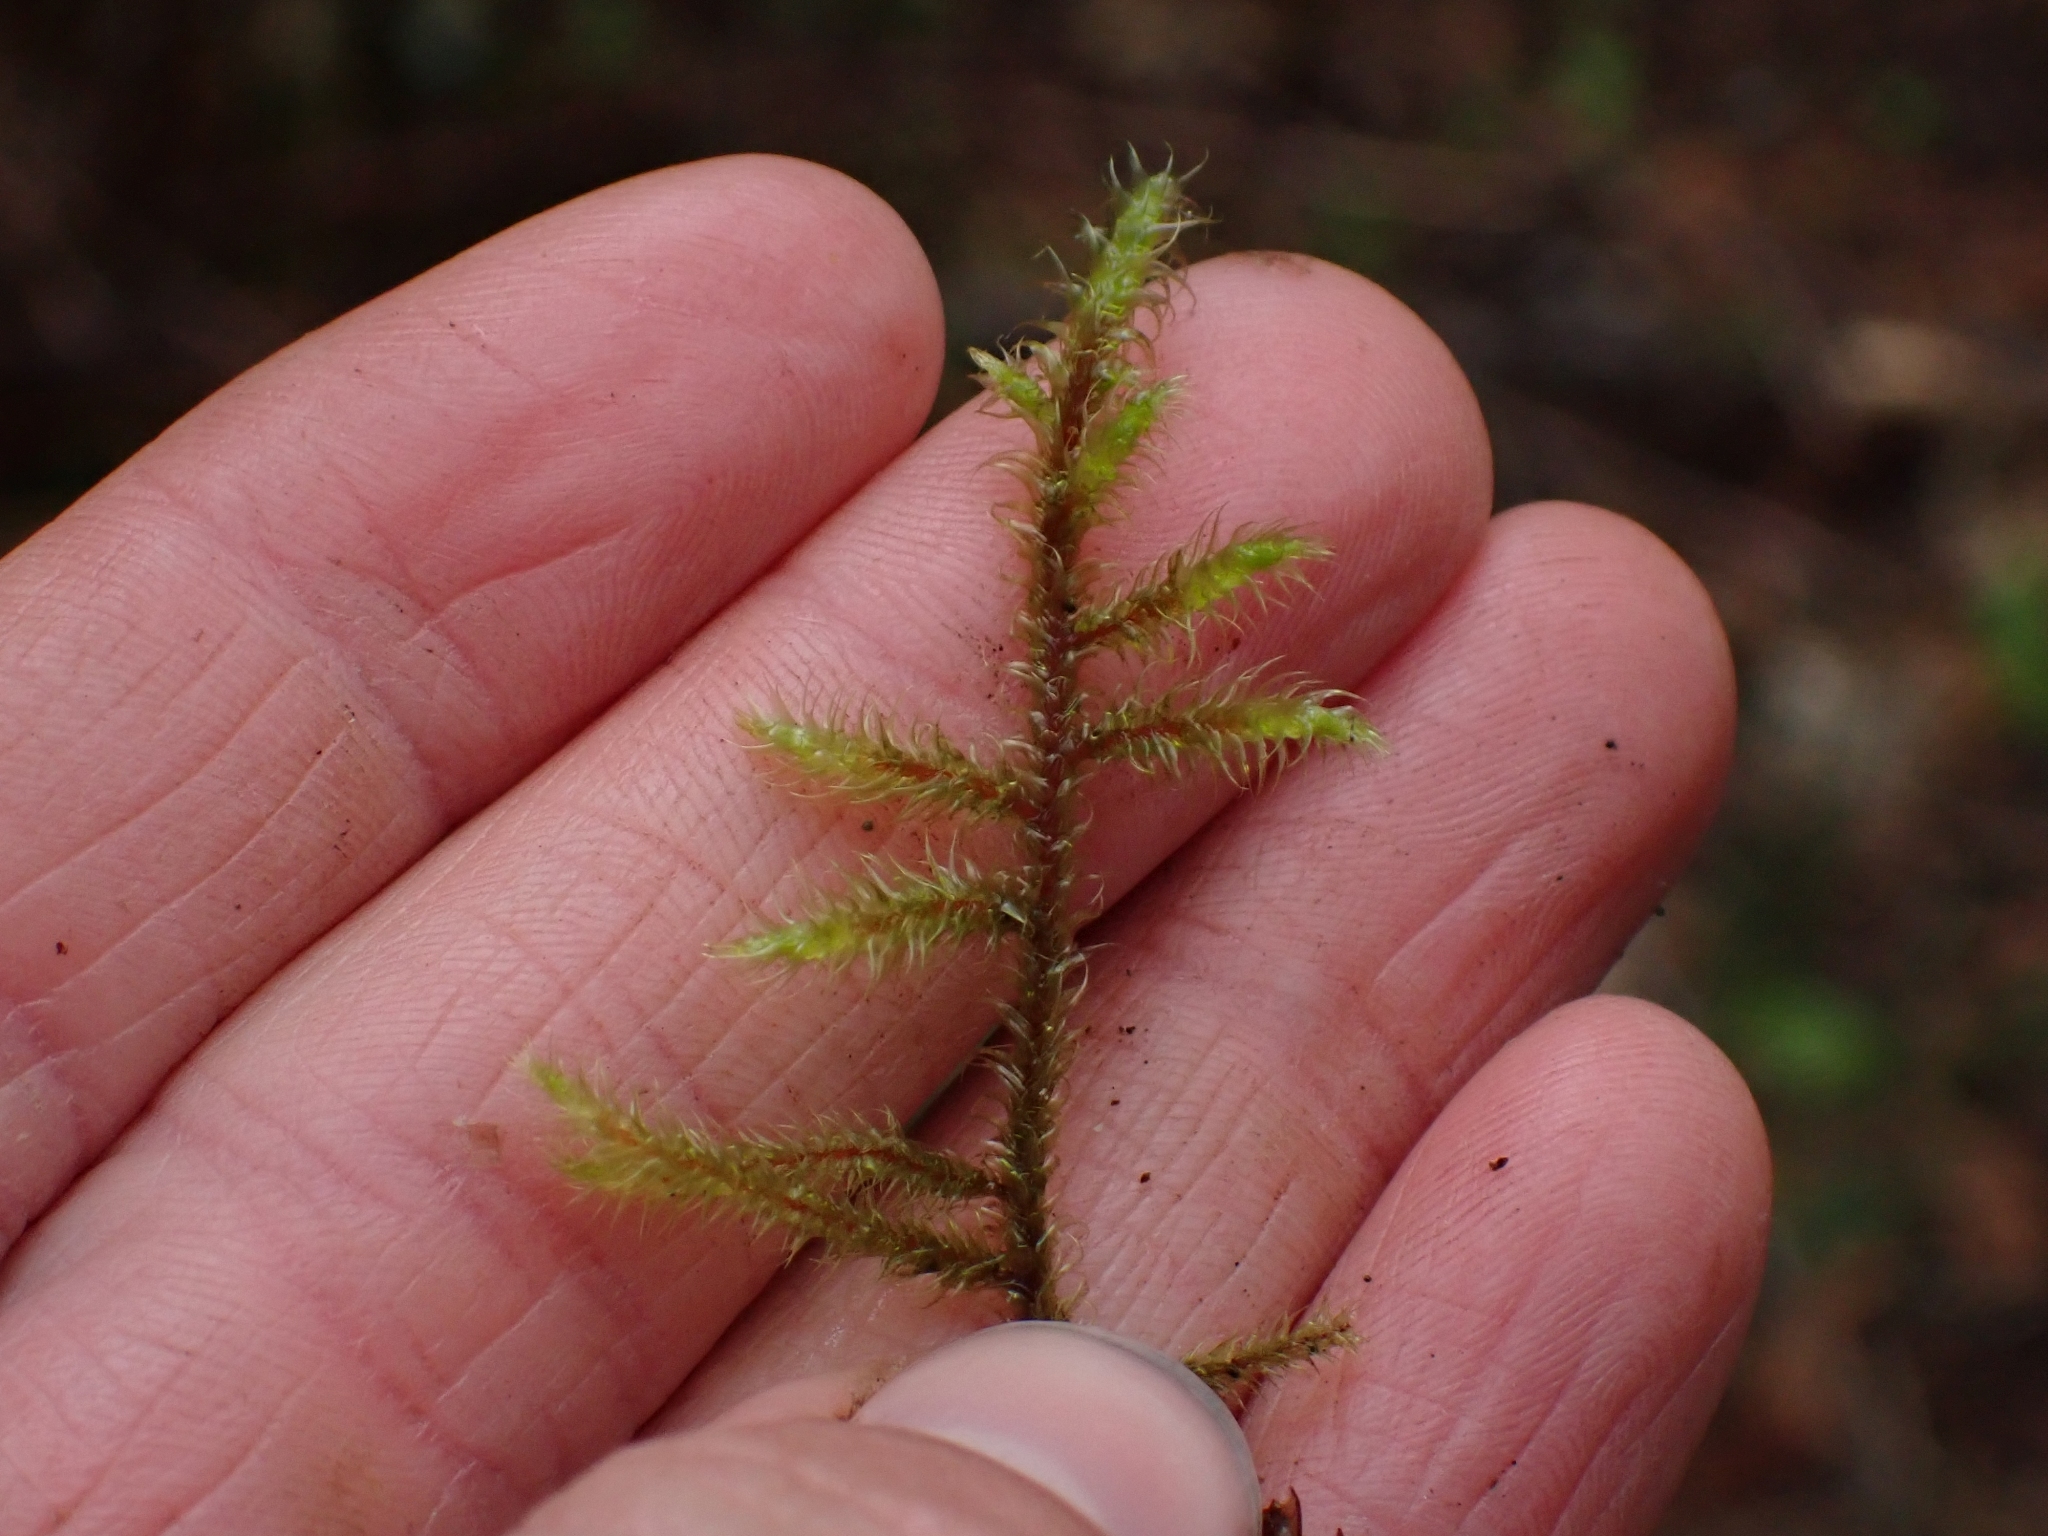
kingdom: Plantae
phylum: Bryophyta
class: Bryopsida
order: Hypnales
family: Hylocomiaceae
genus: Rhytidiadelphus
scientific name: Rhytidiadelphus loreus
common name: Lanky moss
